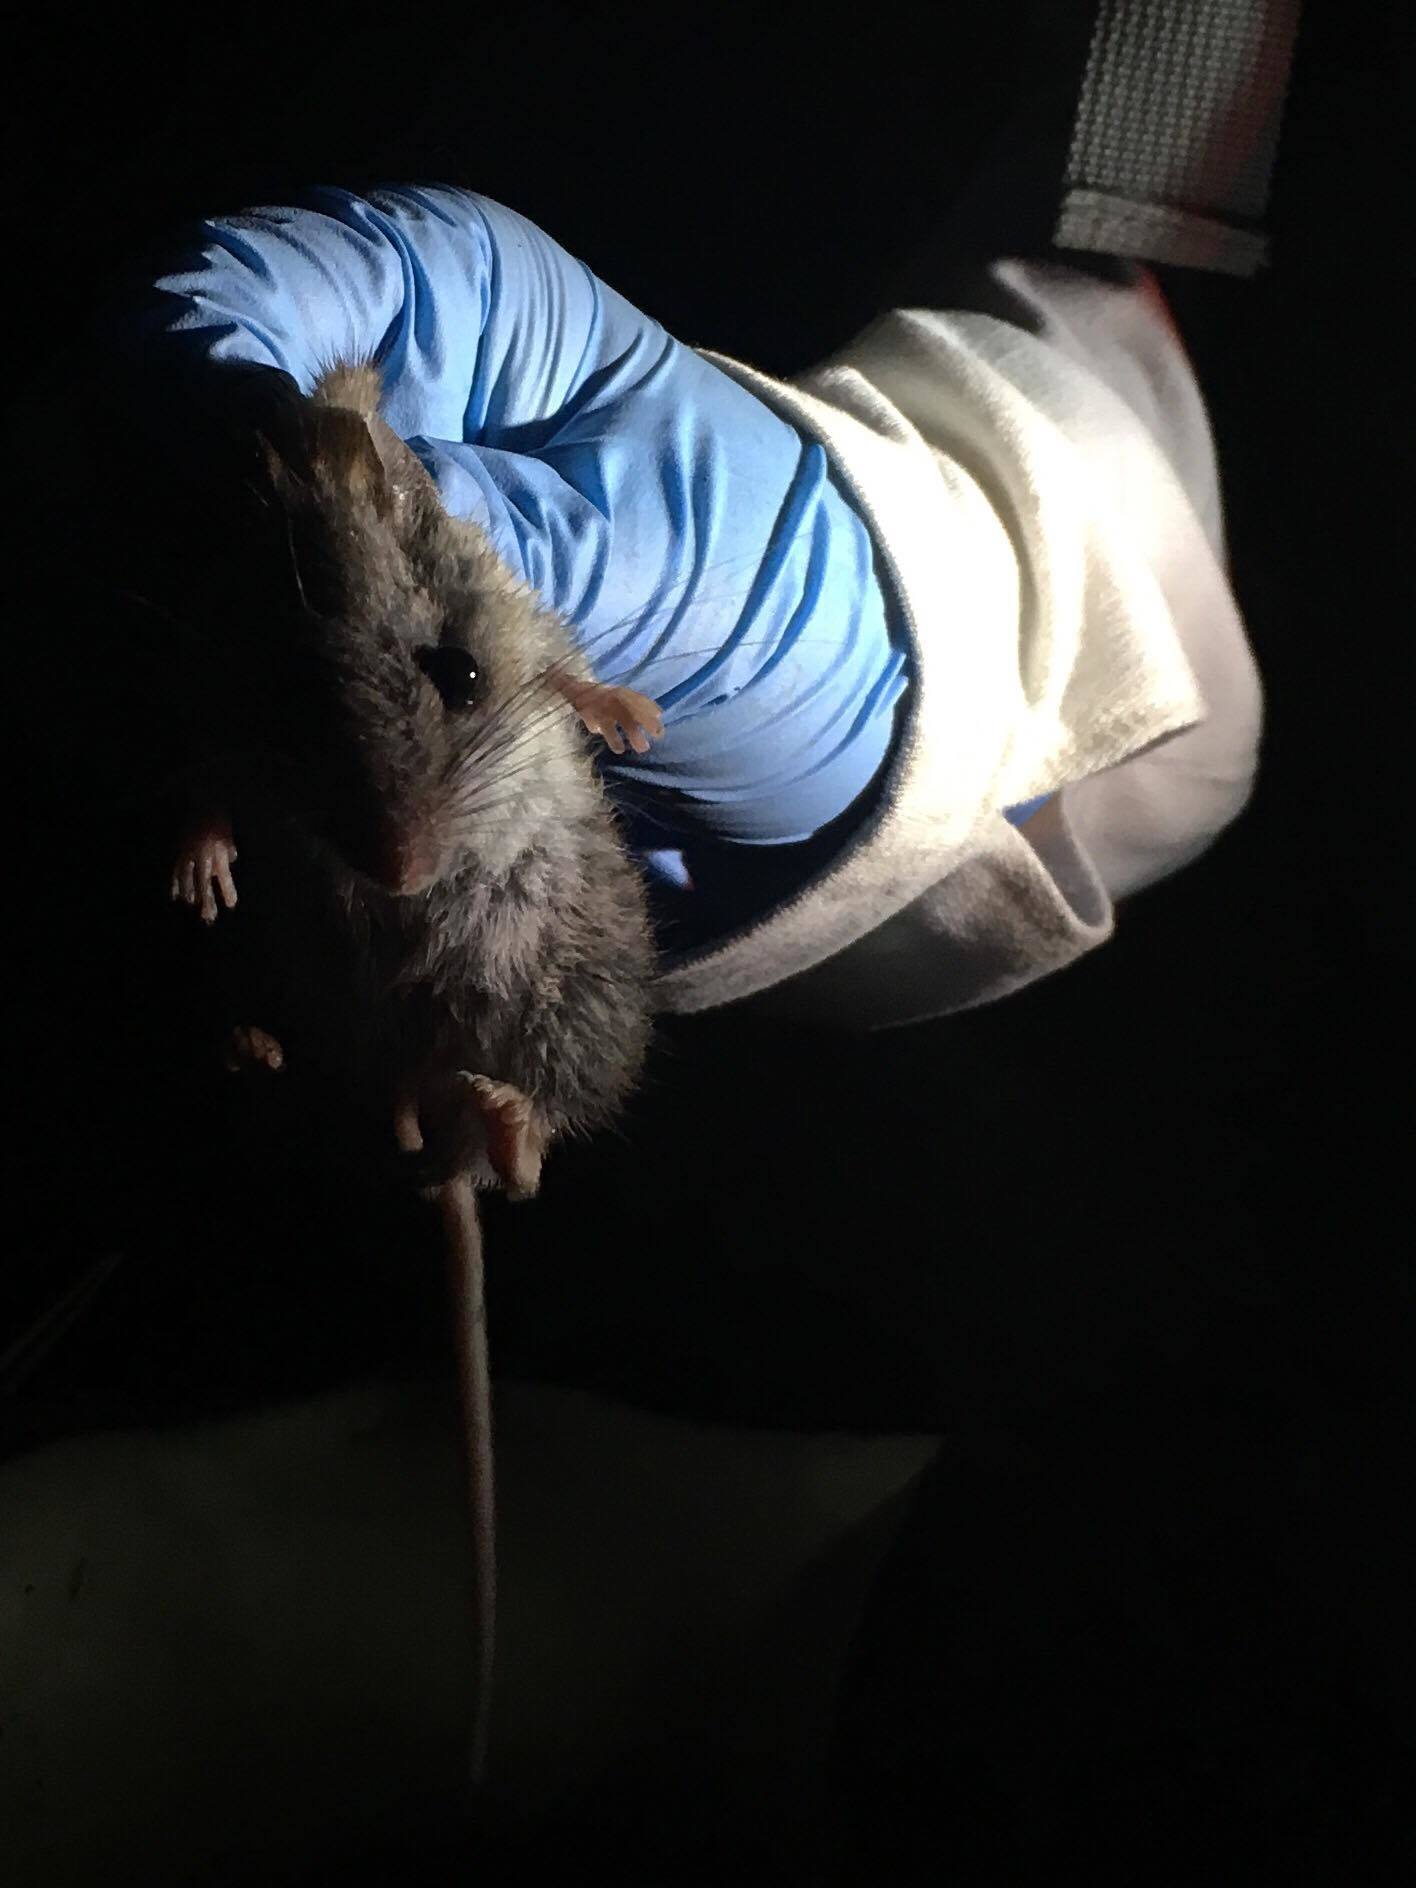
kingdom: Animalia
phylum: Chordata
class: Mammalia
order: Rodentia
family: Cricetidae
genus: Peromyscus
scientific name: Peromyscus maniculatus
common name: Deer mouse
